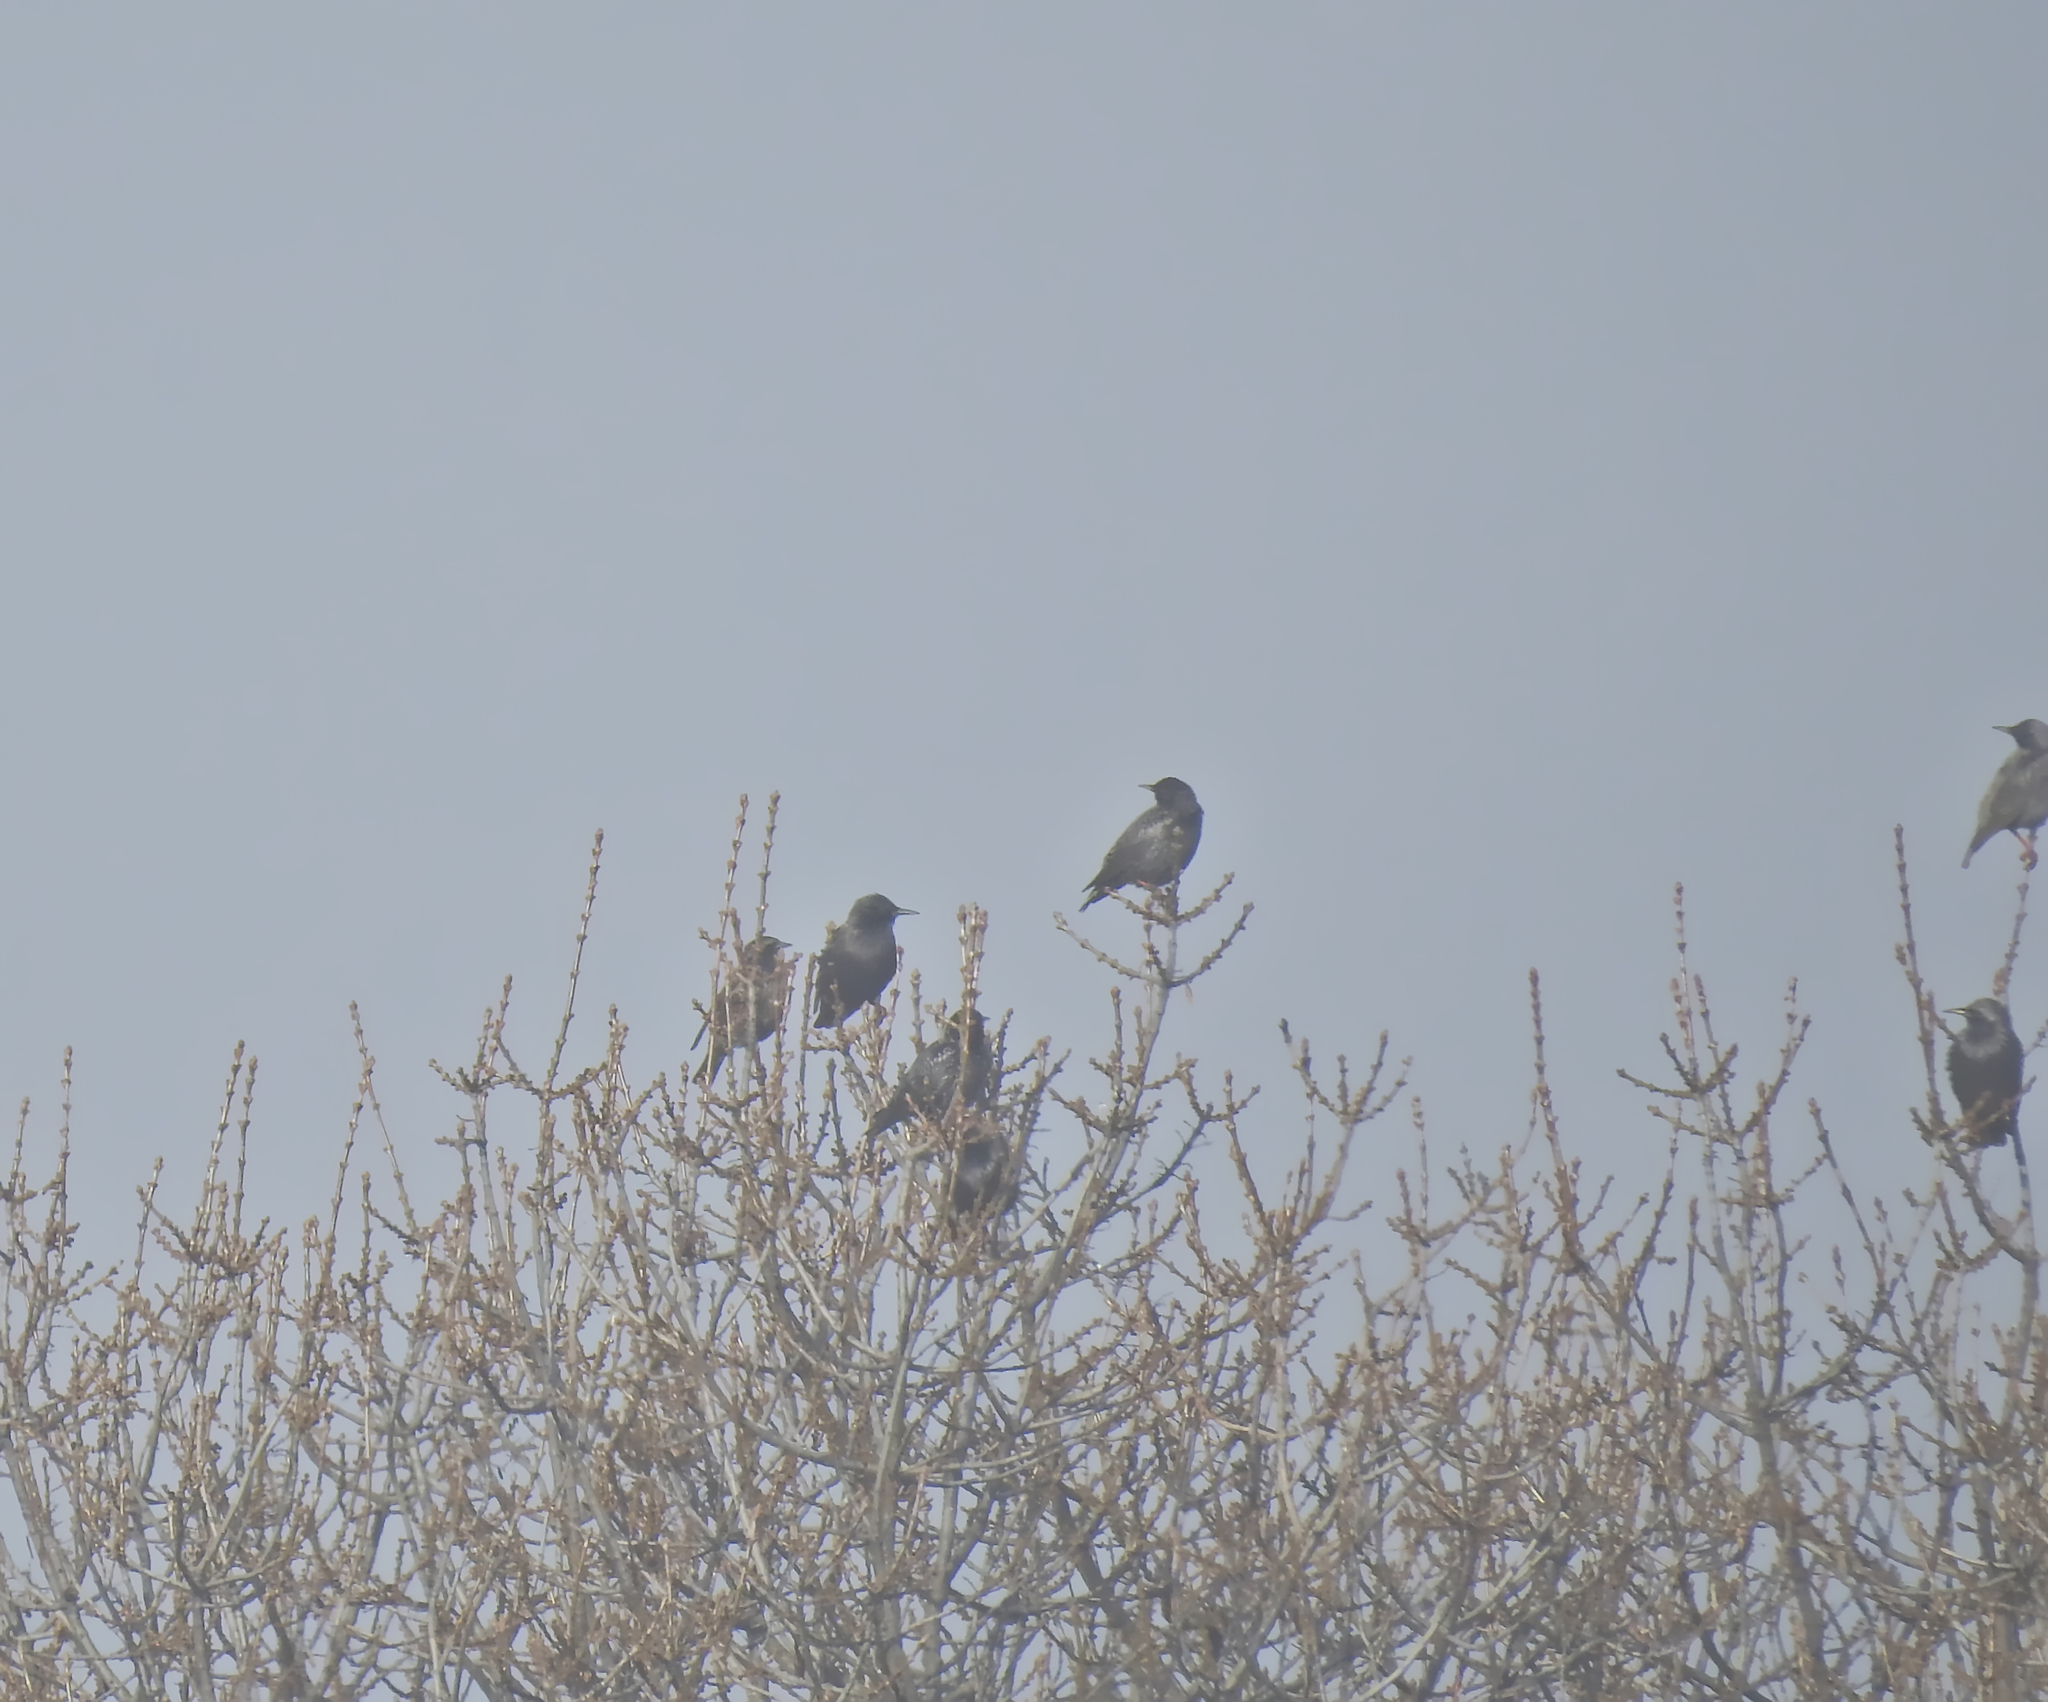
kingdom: Animalia
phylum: Chordata
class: Aves
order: Passeriformes
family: Sturnidae
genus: Sturnus
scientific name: Sturnus unicolor
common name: Spotless starling
